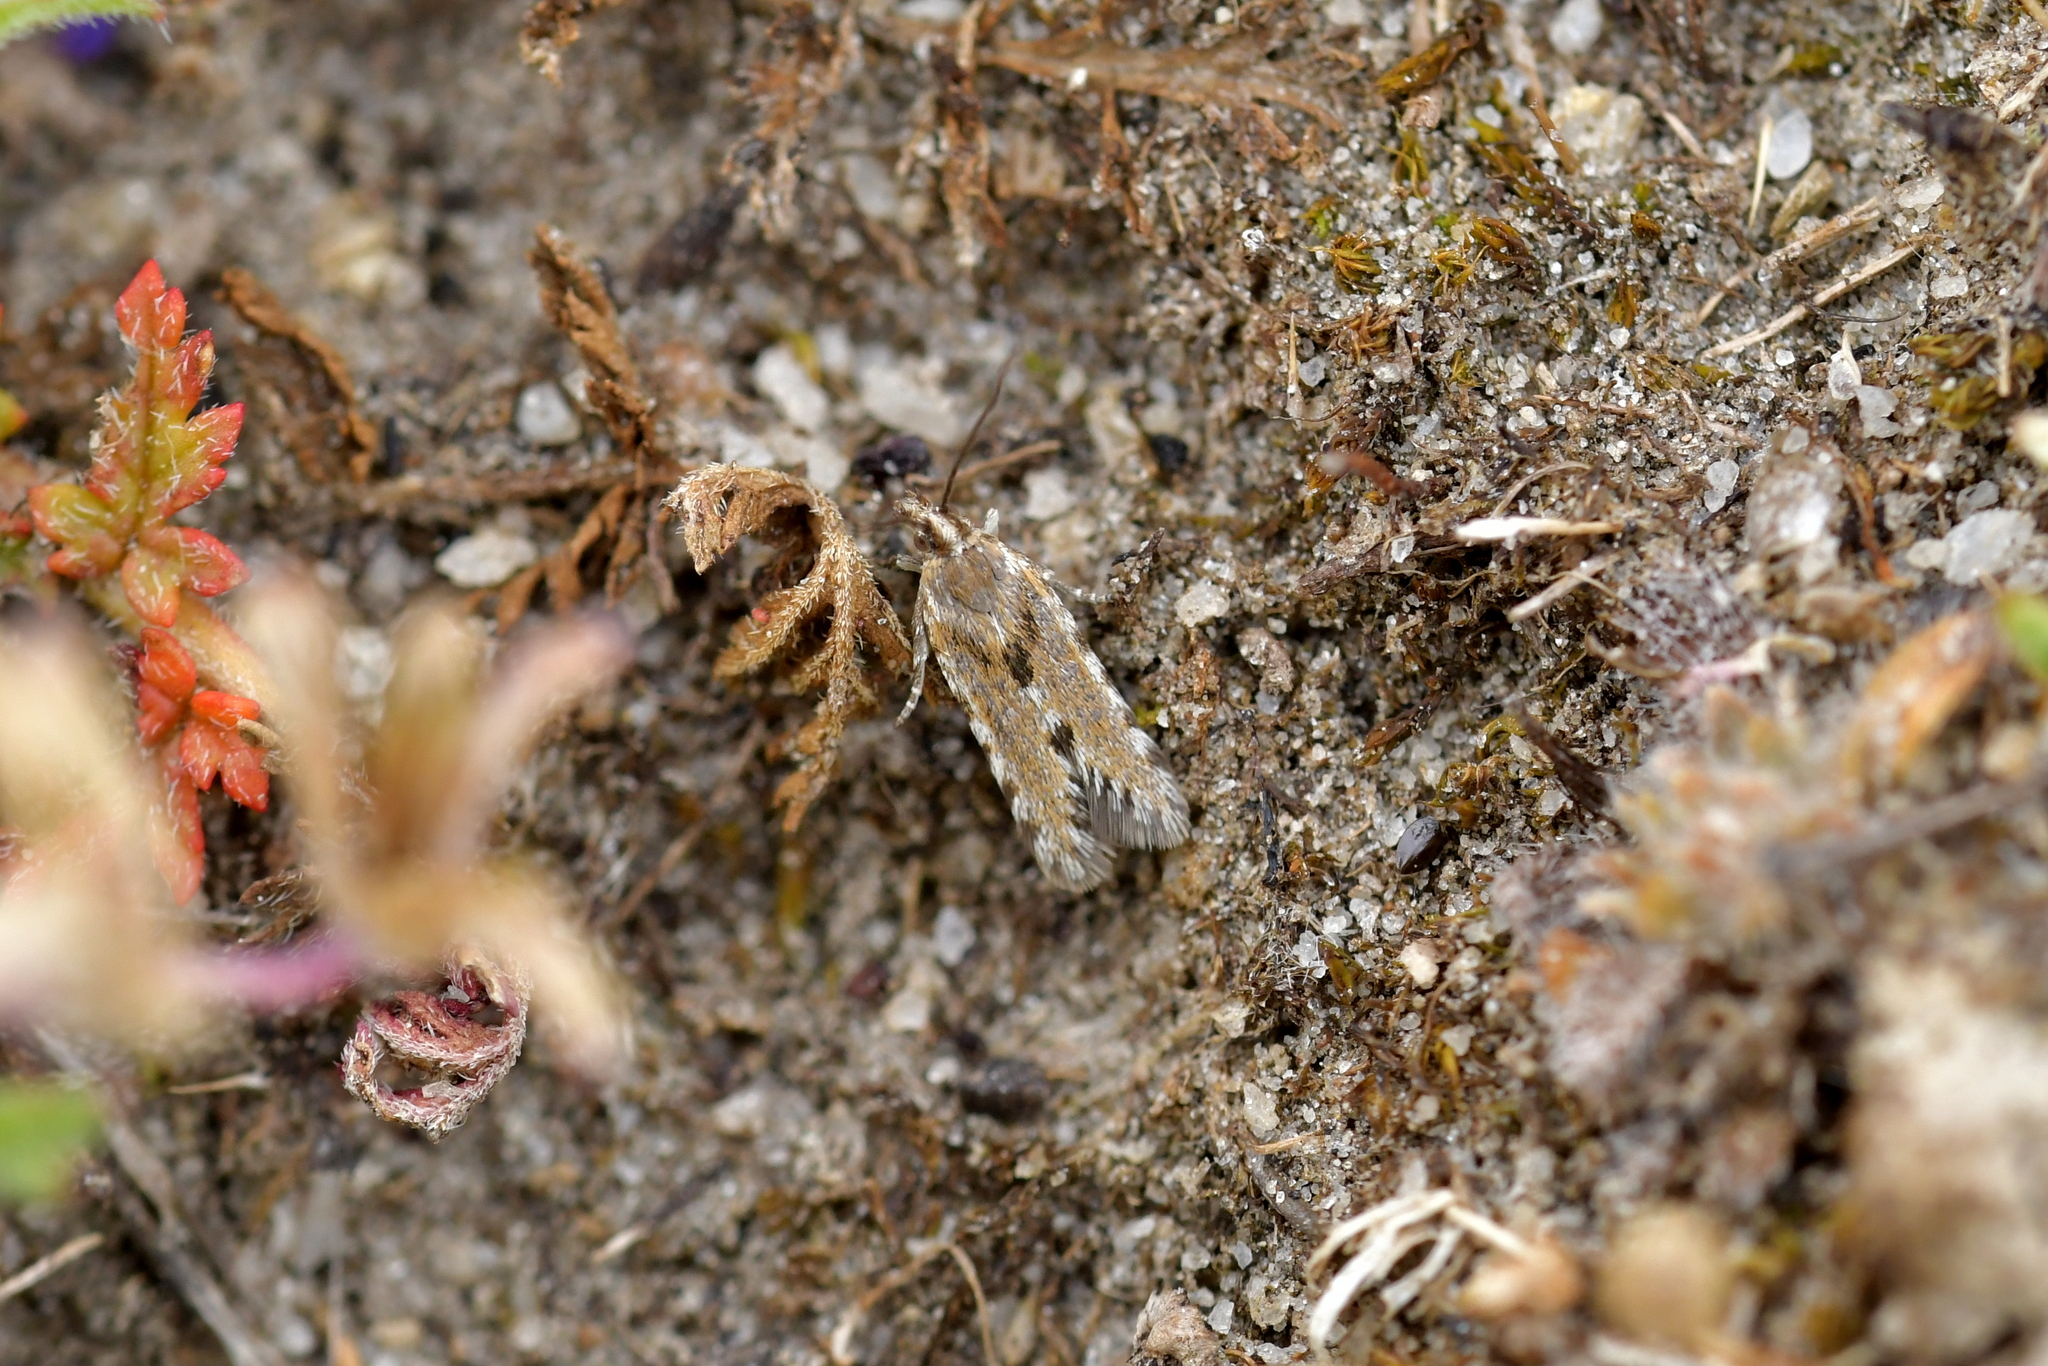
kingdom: Animalia
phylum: Arthropoda
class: Insecta
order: Lepidoptera
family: Tortricidae
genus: Eurythecta
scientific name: Eurythecta zelaea
